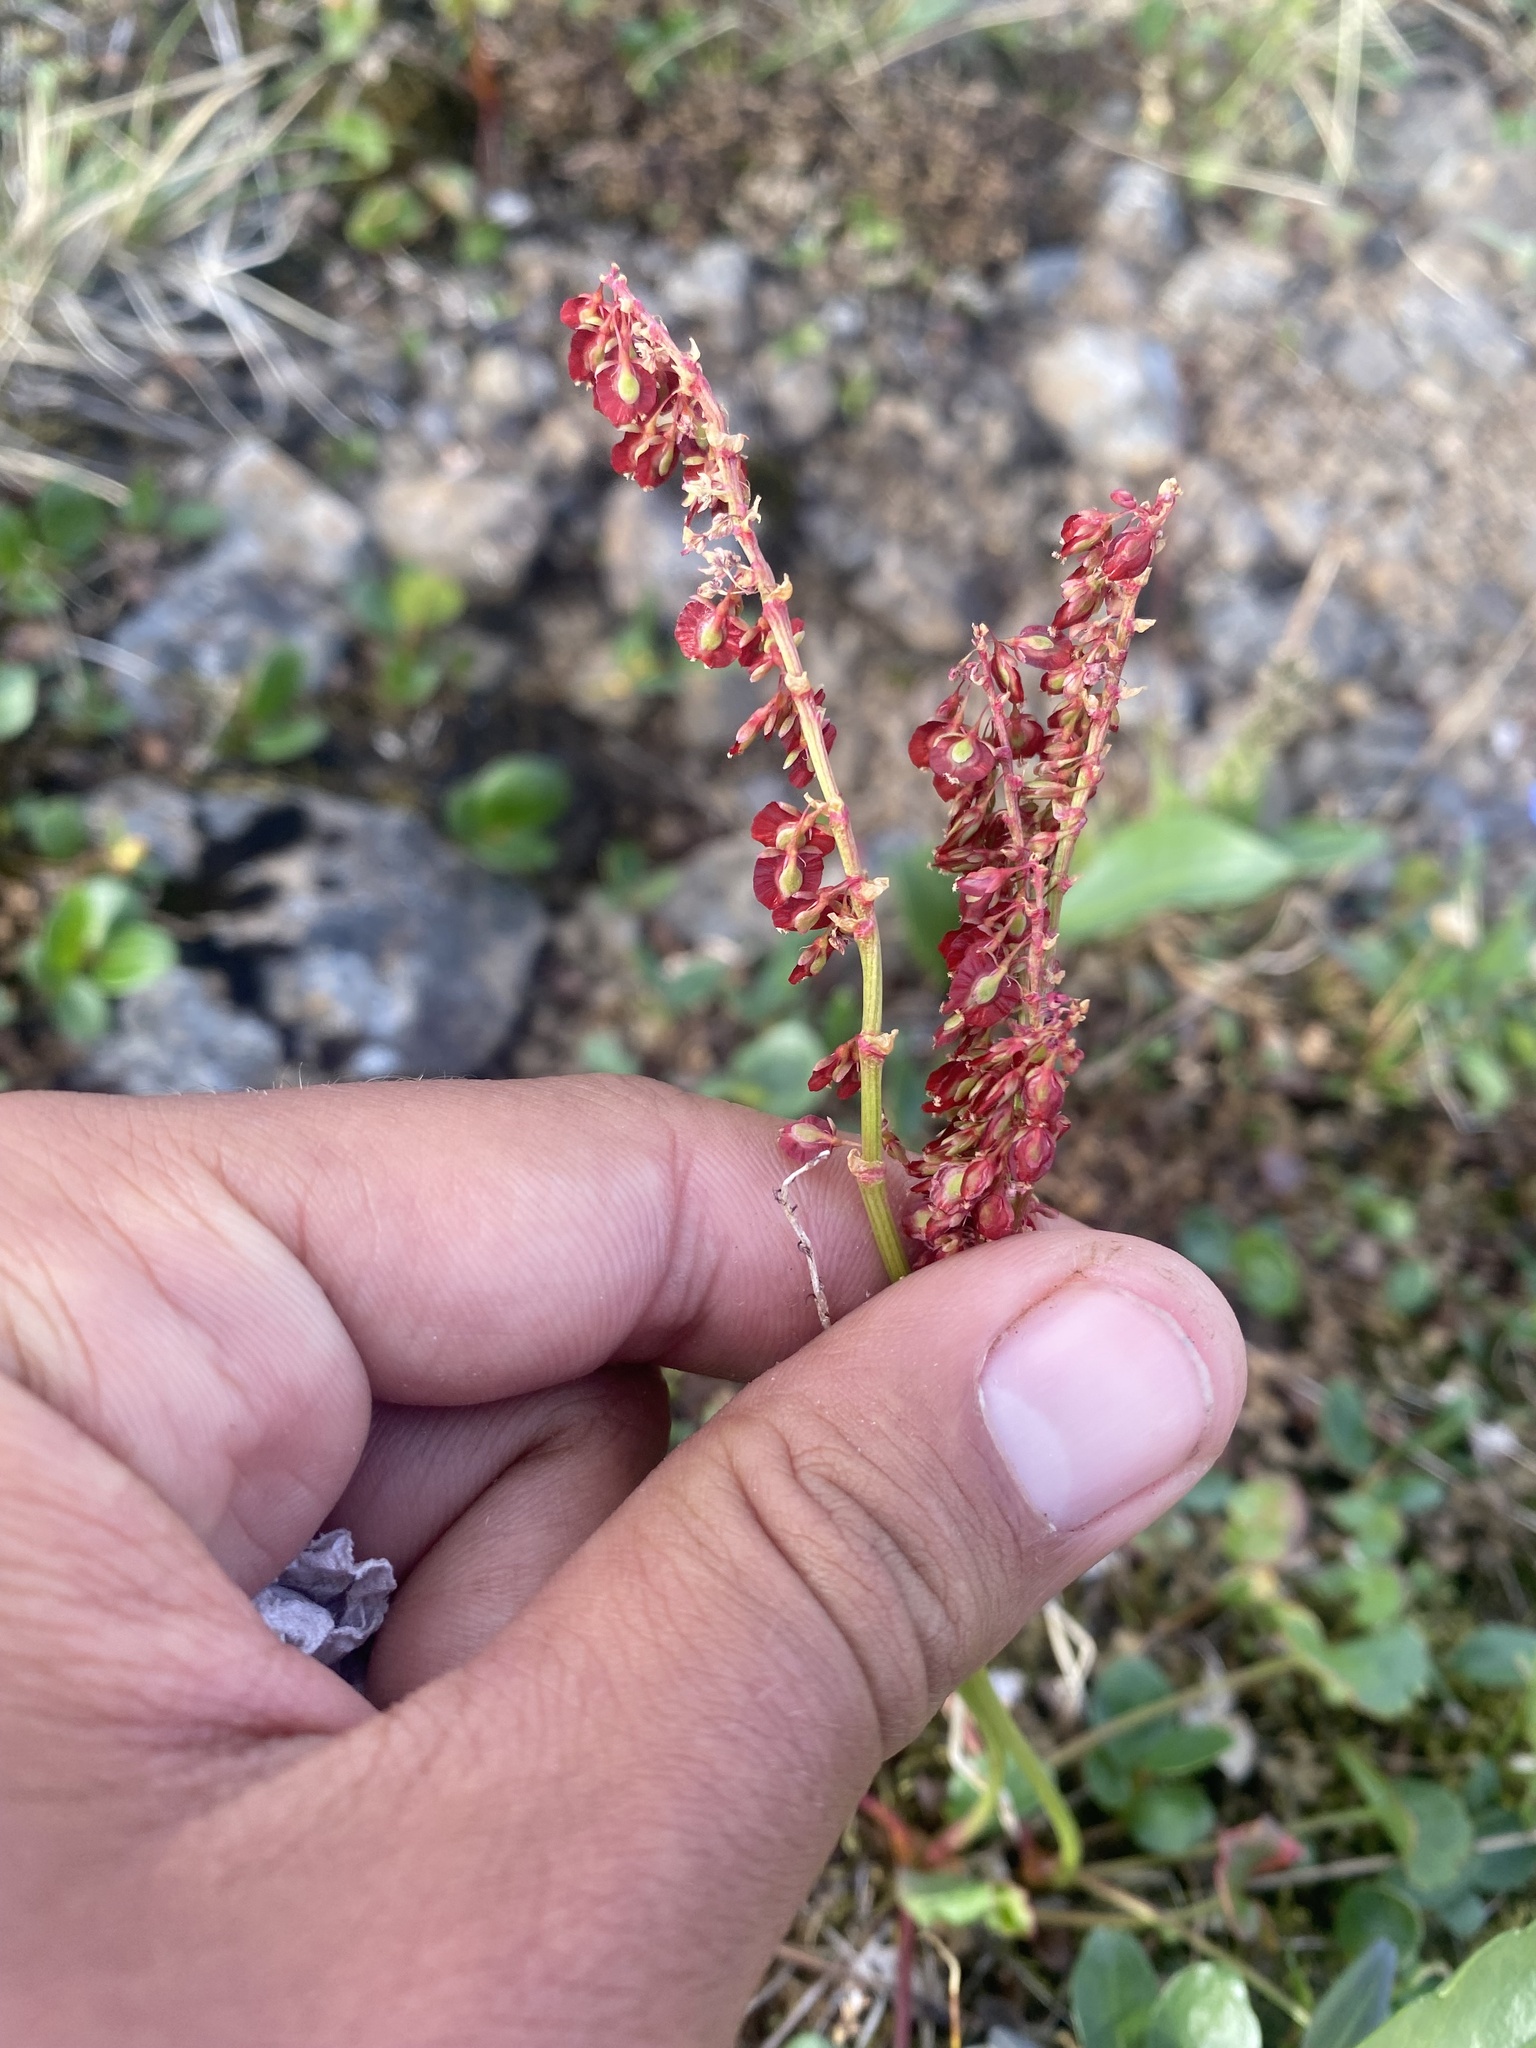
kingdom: Plantae
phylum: Tracheophyta
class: Magnoliopsida
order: Caryophyllales
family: Polygonaceae
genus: Oxyria
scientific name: Oxyria digyna
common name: Alpine mountain-sorrel
